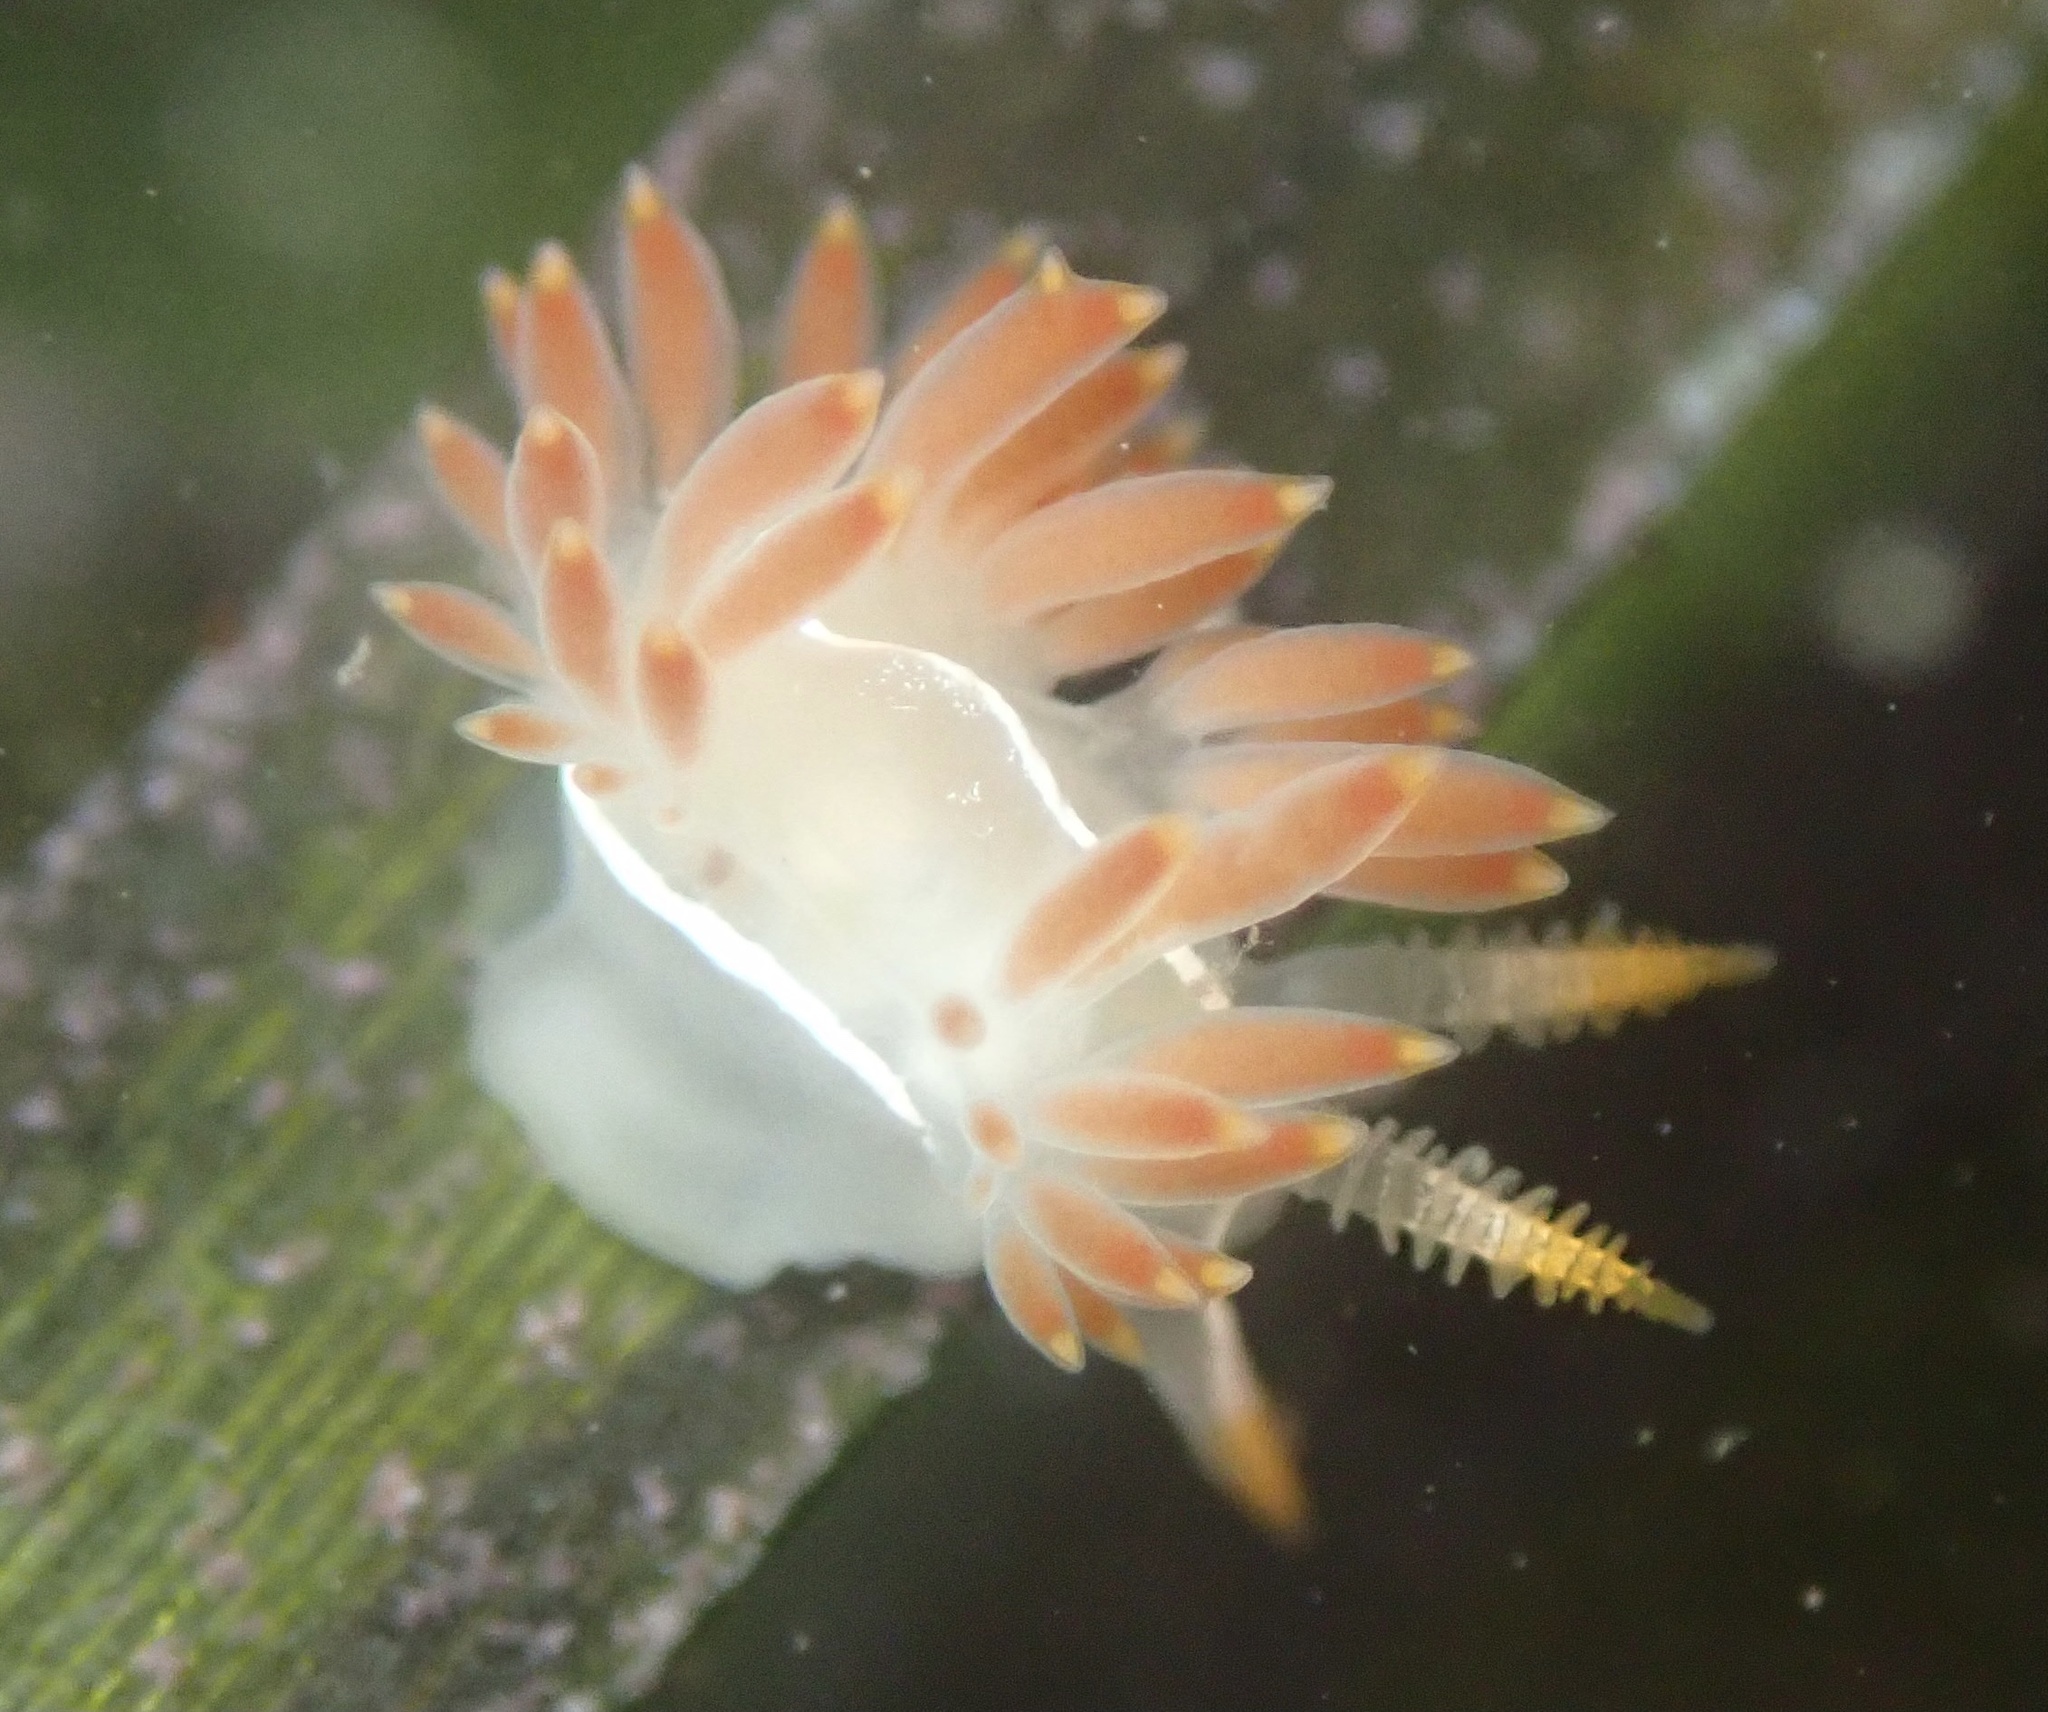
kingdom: Animalia
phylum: Mollusca
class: Gastropoda
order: Nudibranchia
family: Coryphellidae
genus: Coryphella
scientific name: Coryphella trilineata
